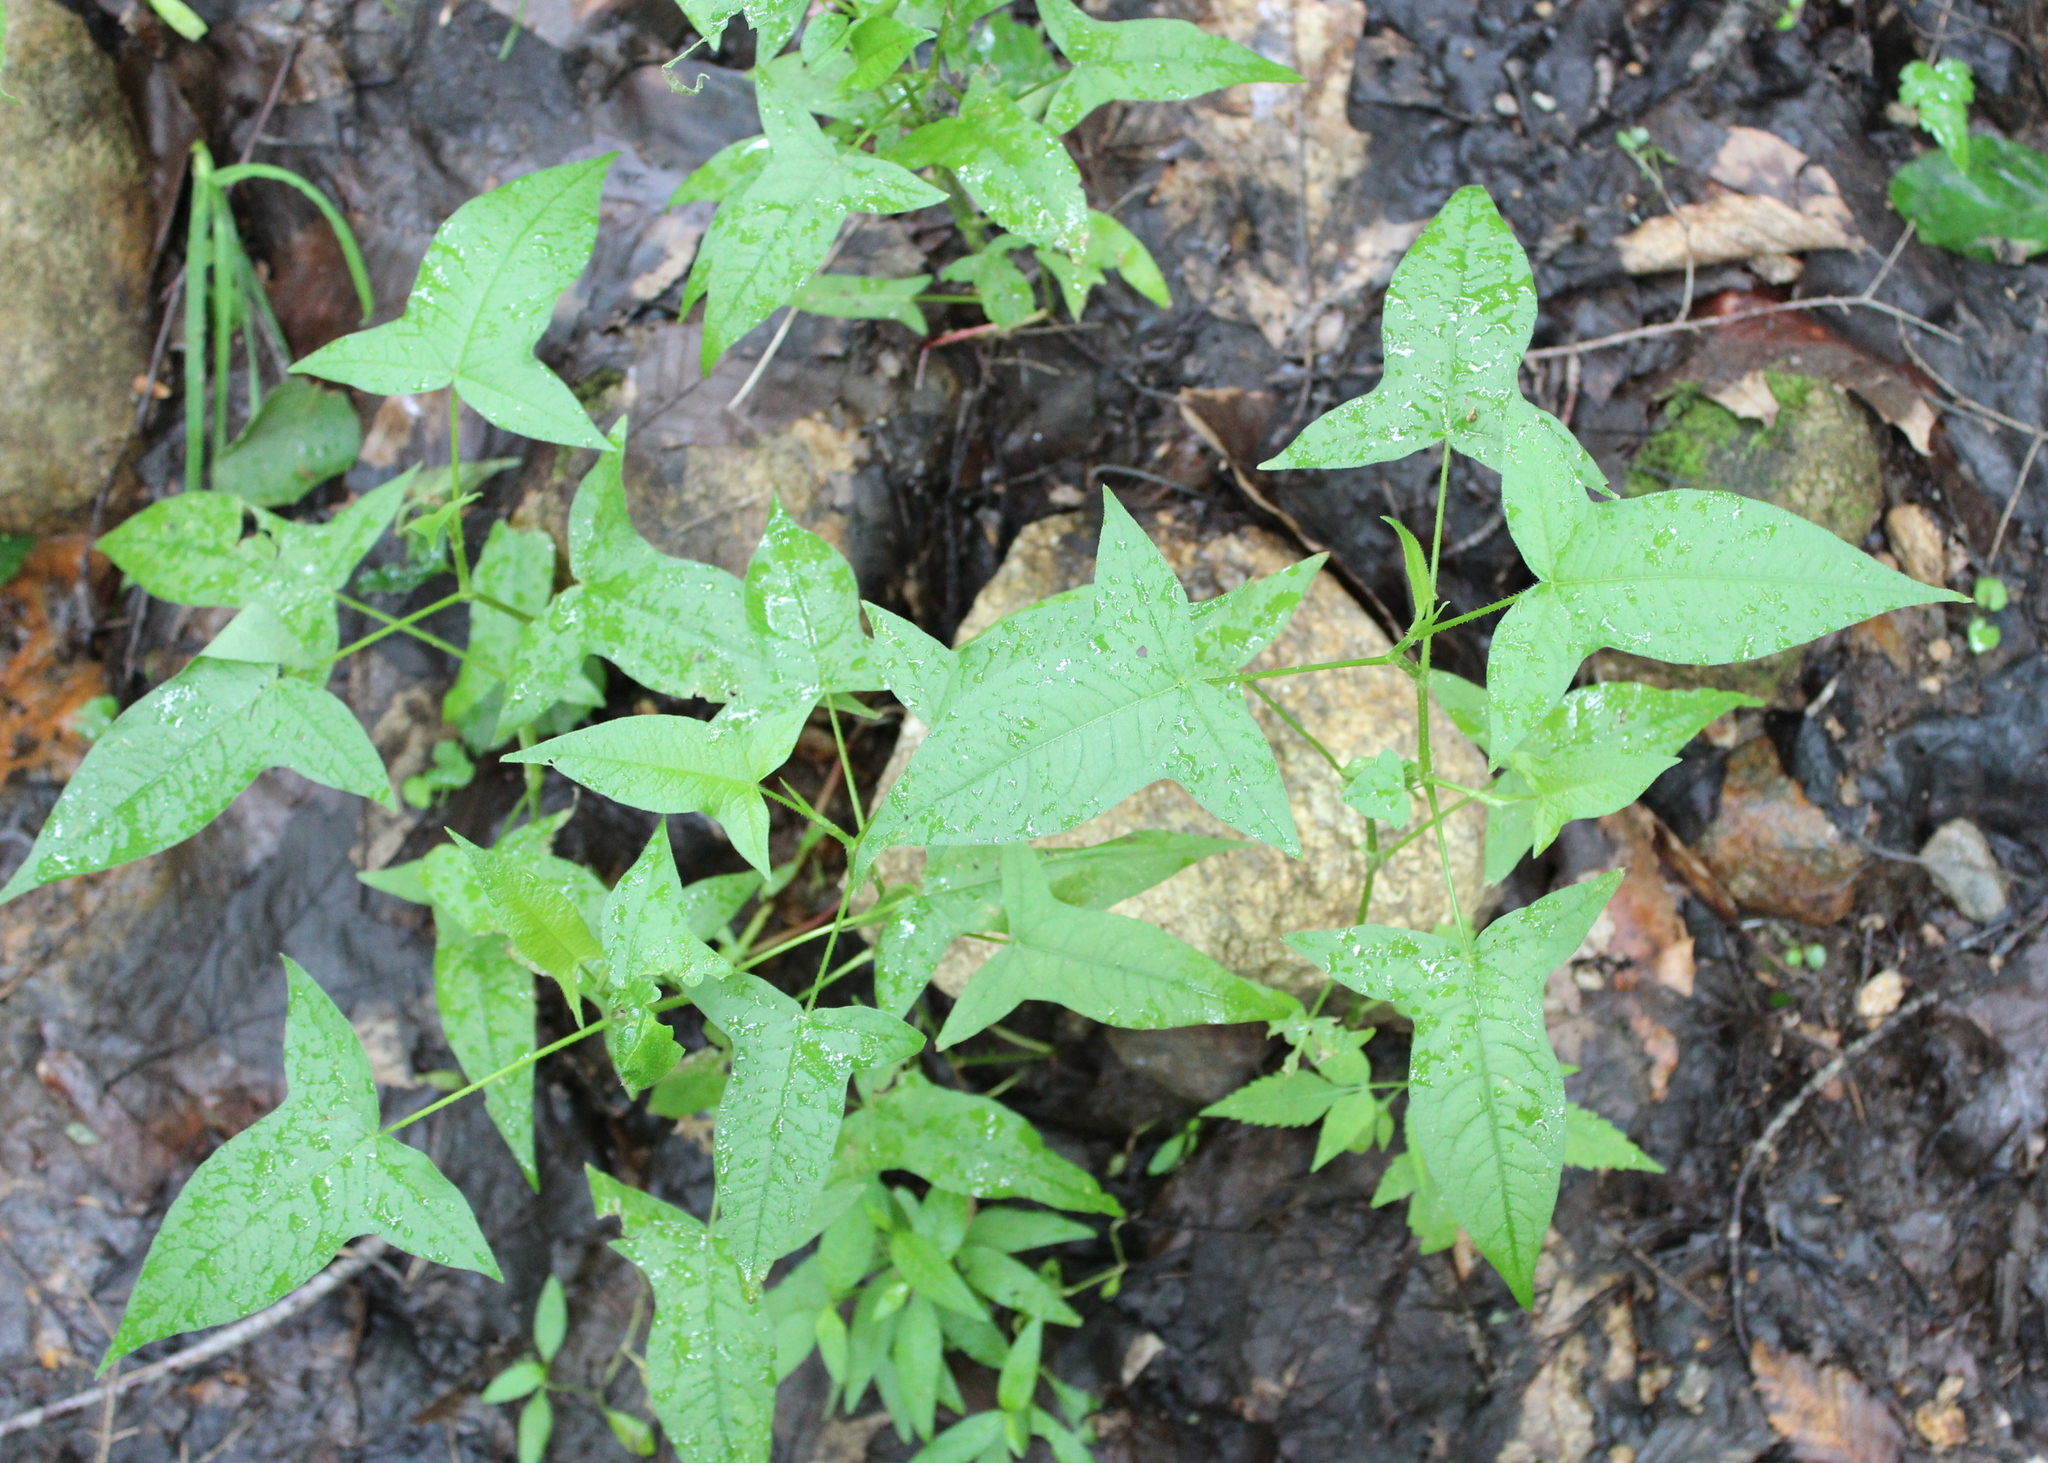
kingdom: Plantae
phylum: Tracheophyta
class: Magnoliopsida
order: Caryophyllales
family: Polygonaceae
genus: Persicaria
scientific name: Persicaria arifolia
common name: Halberd-leaved tear-thumb
